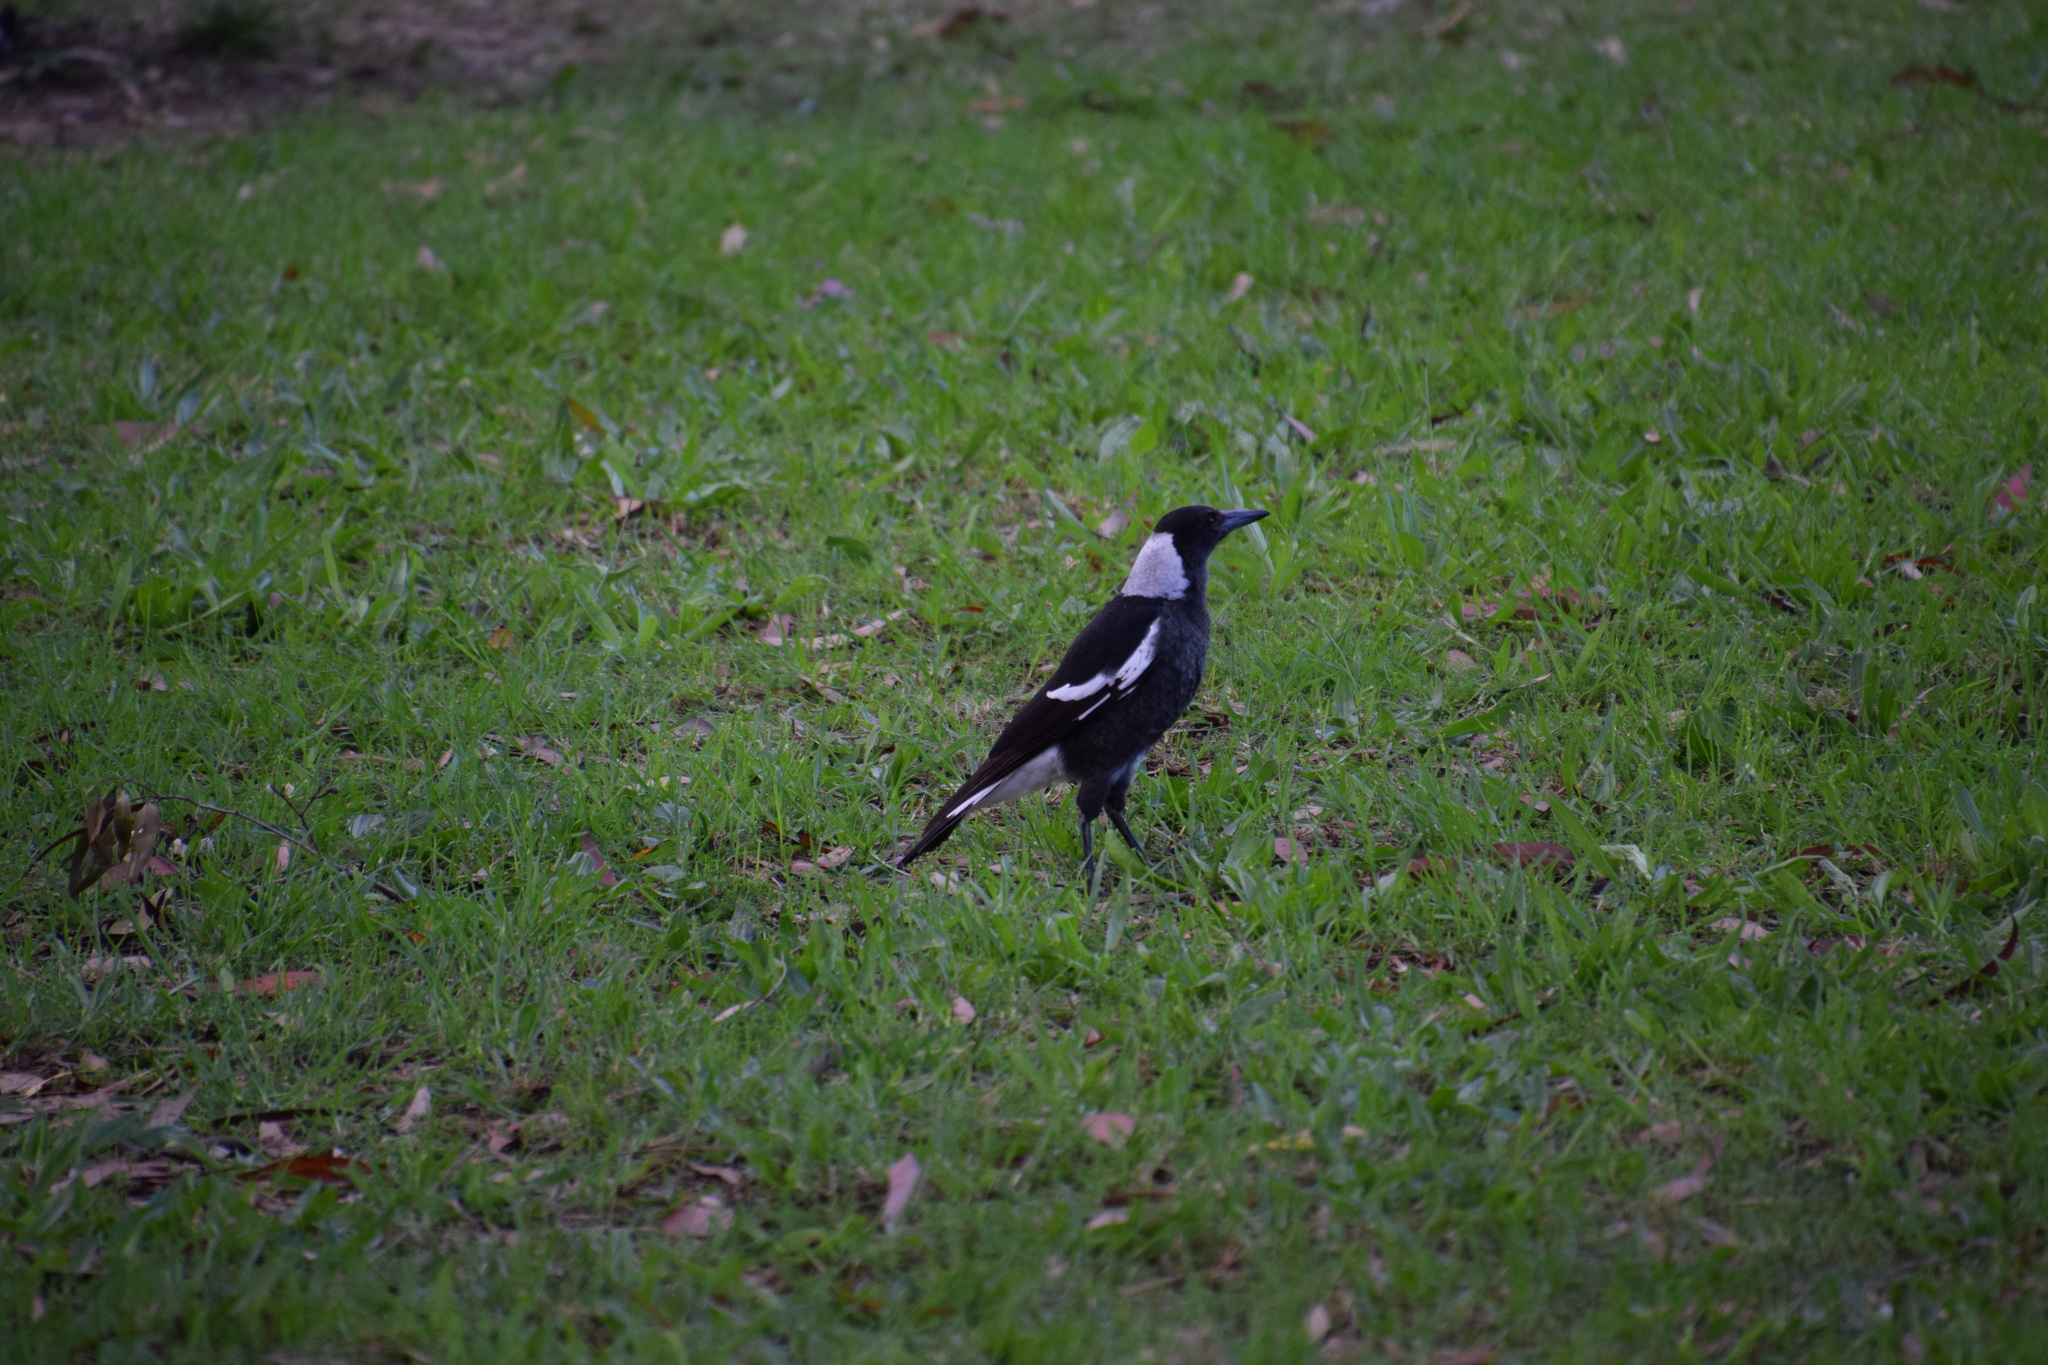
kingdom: Animalia
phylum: Chordata
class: Aves
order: Passeriformes
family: Cracticidae
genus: Gymnorhina
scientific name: Gymnorhina tibicen
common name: Australian magpie
